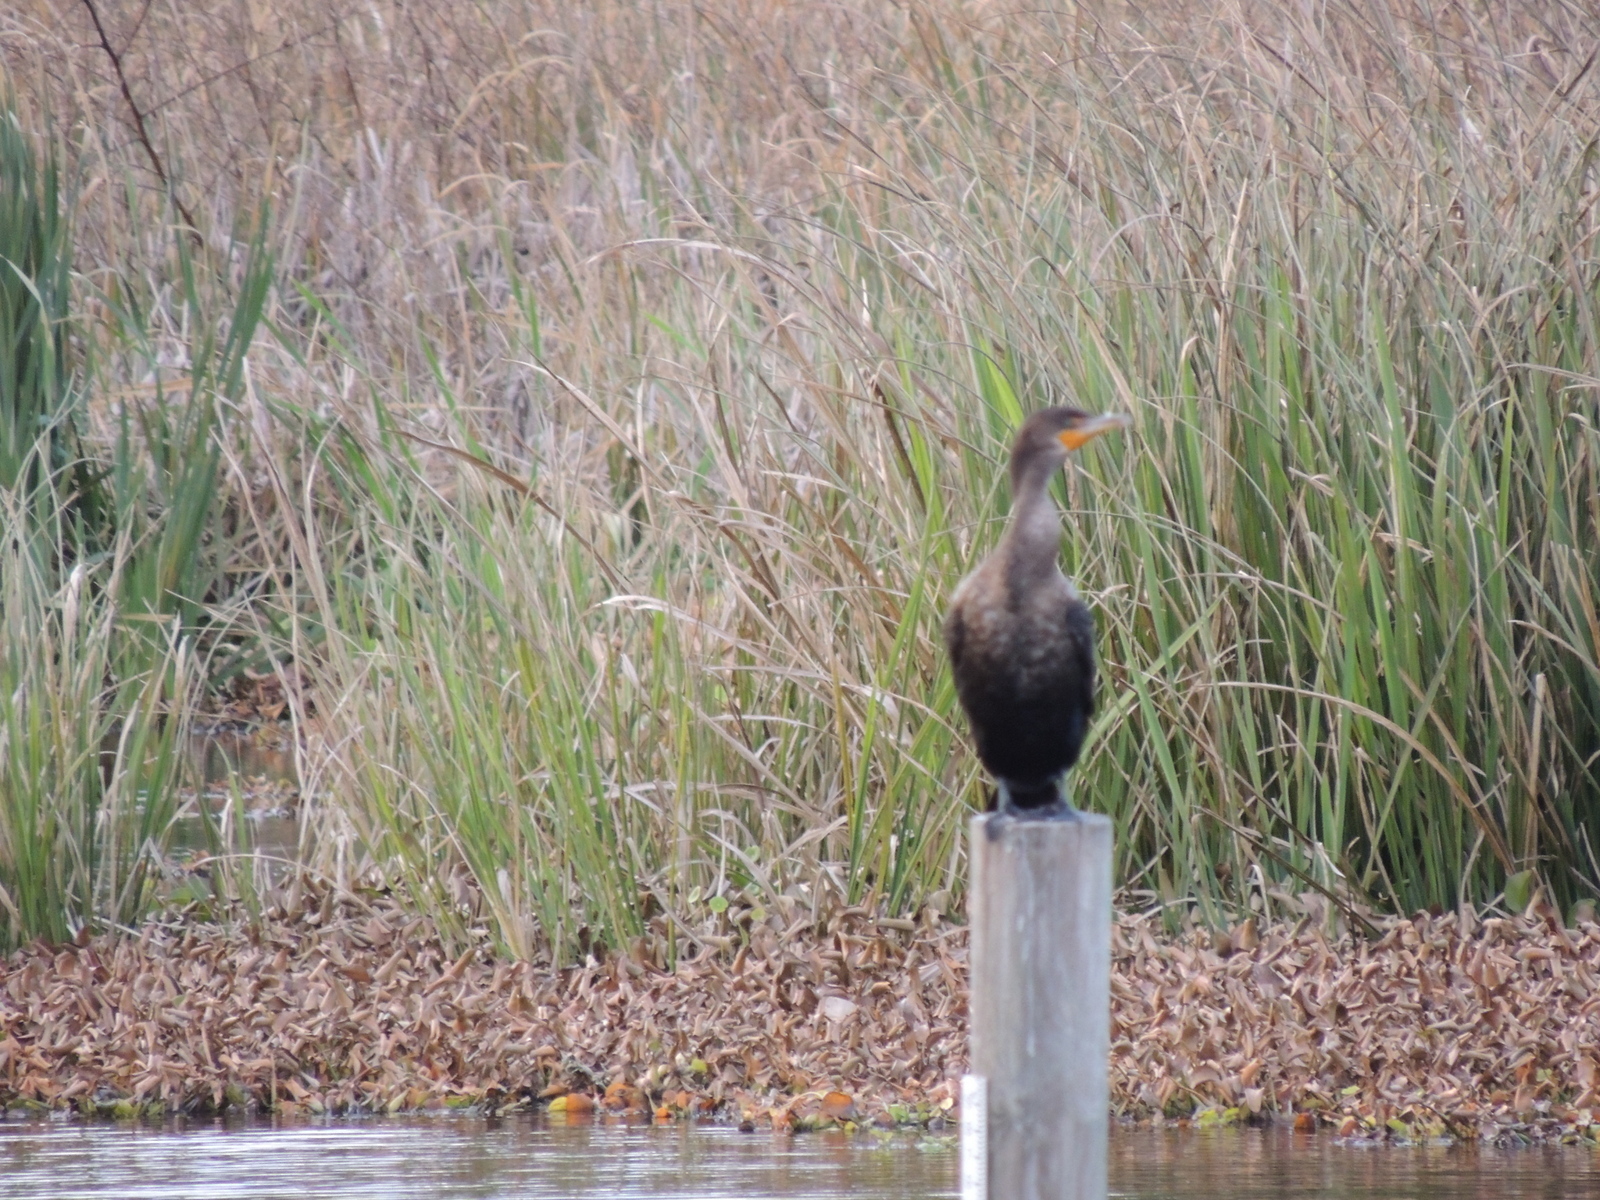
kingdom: Animalia
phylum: Chordata
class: Aves
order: Suliformes
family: Phalacrocoracidae
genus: Phalacrocorax
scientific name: Phalacrocorax auritus
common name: Double-crested cormorant
